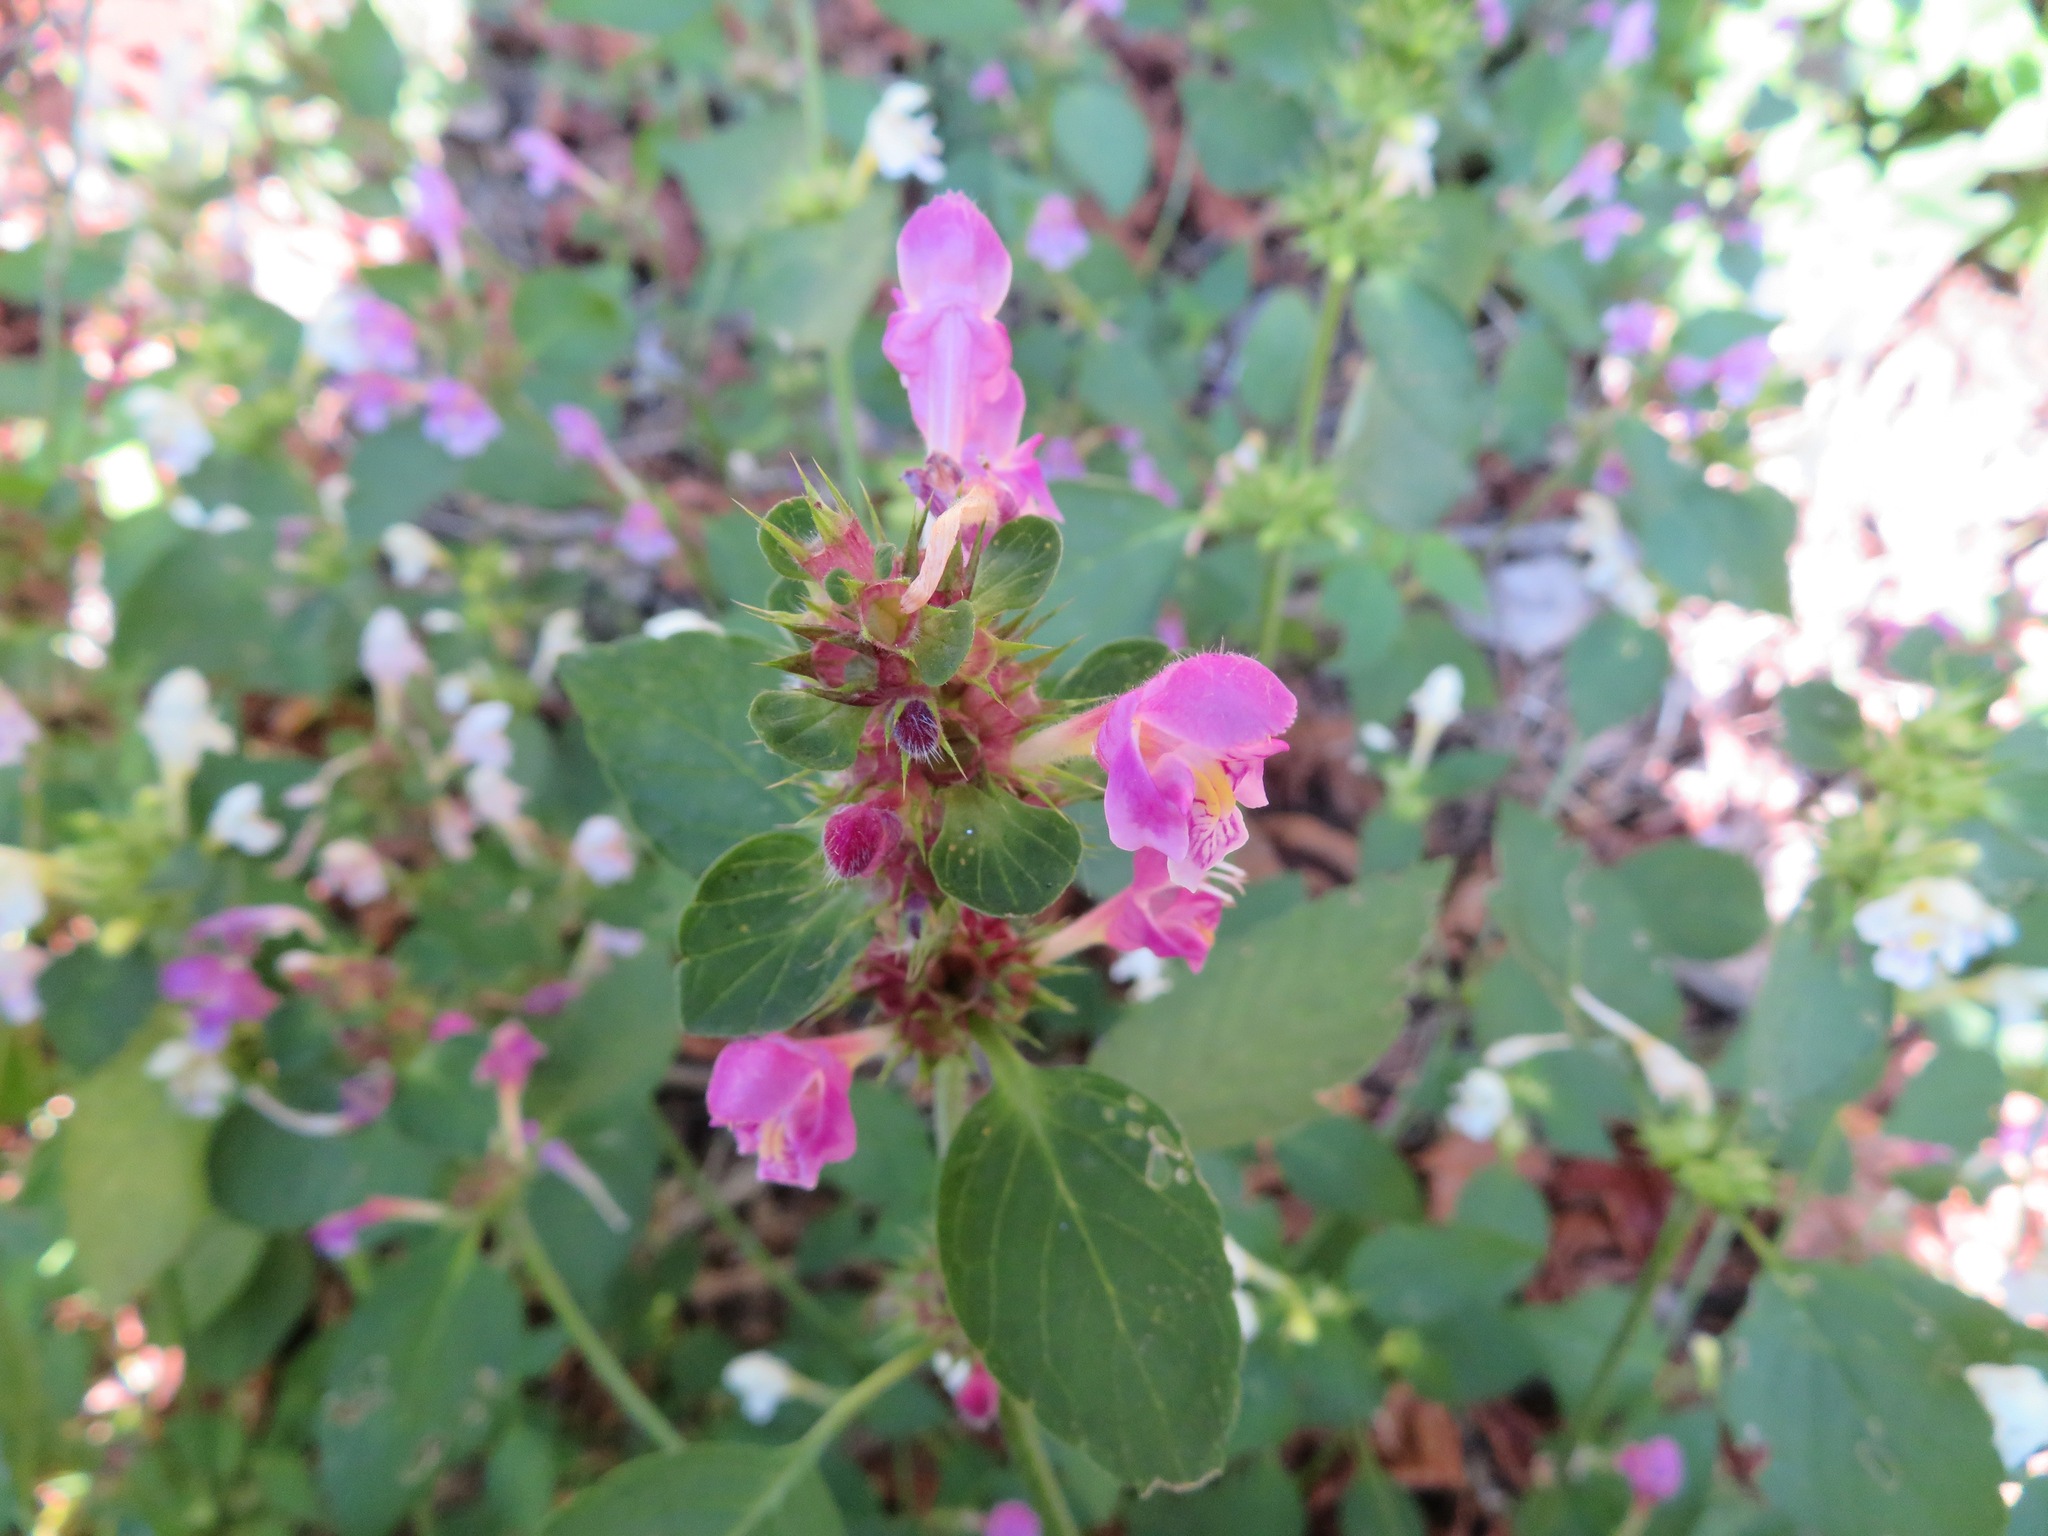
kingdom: Plantae
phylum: Tracheophyta
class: Magnoliopsida
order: Lamiales
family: Lamiaceae
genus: Galeopsis
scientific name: Galeopsis pubescens
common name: Downy hemp-nettle
